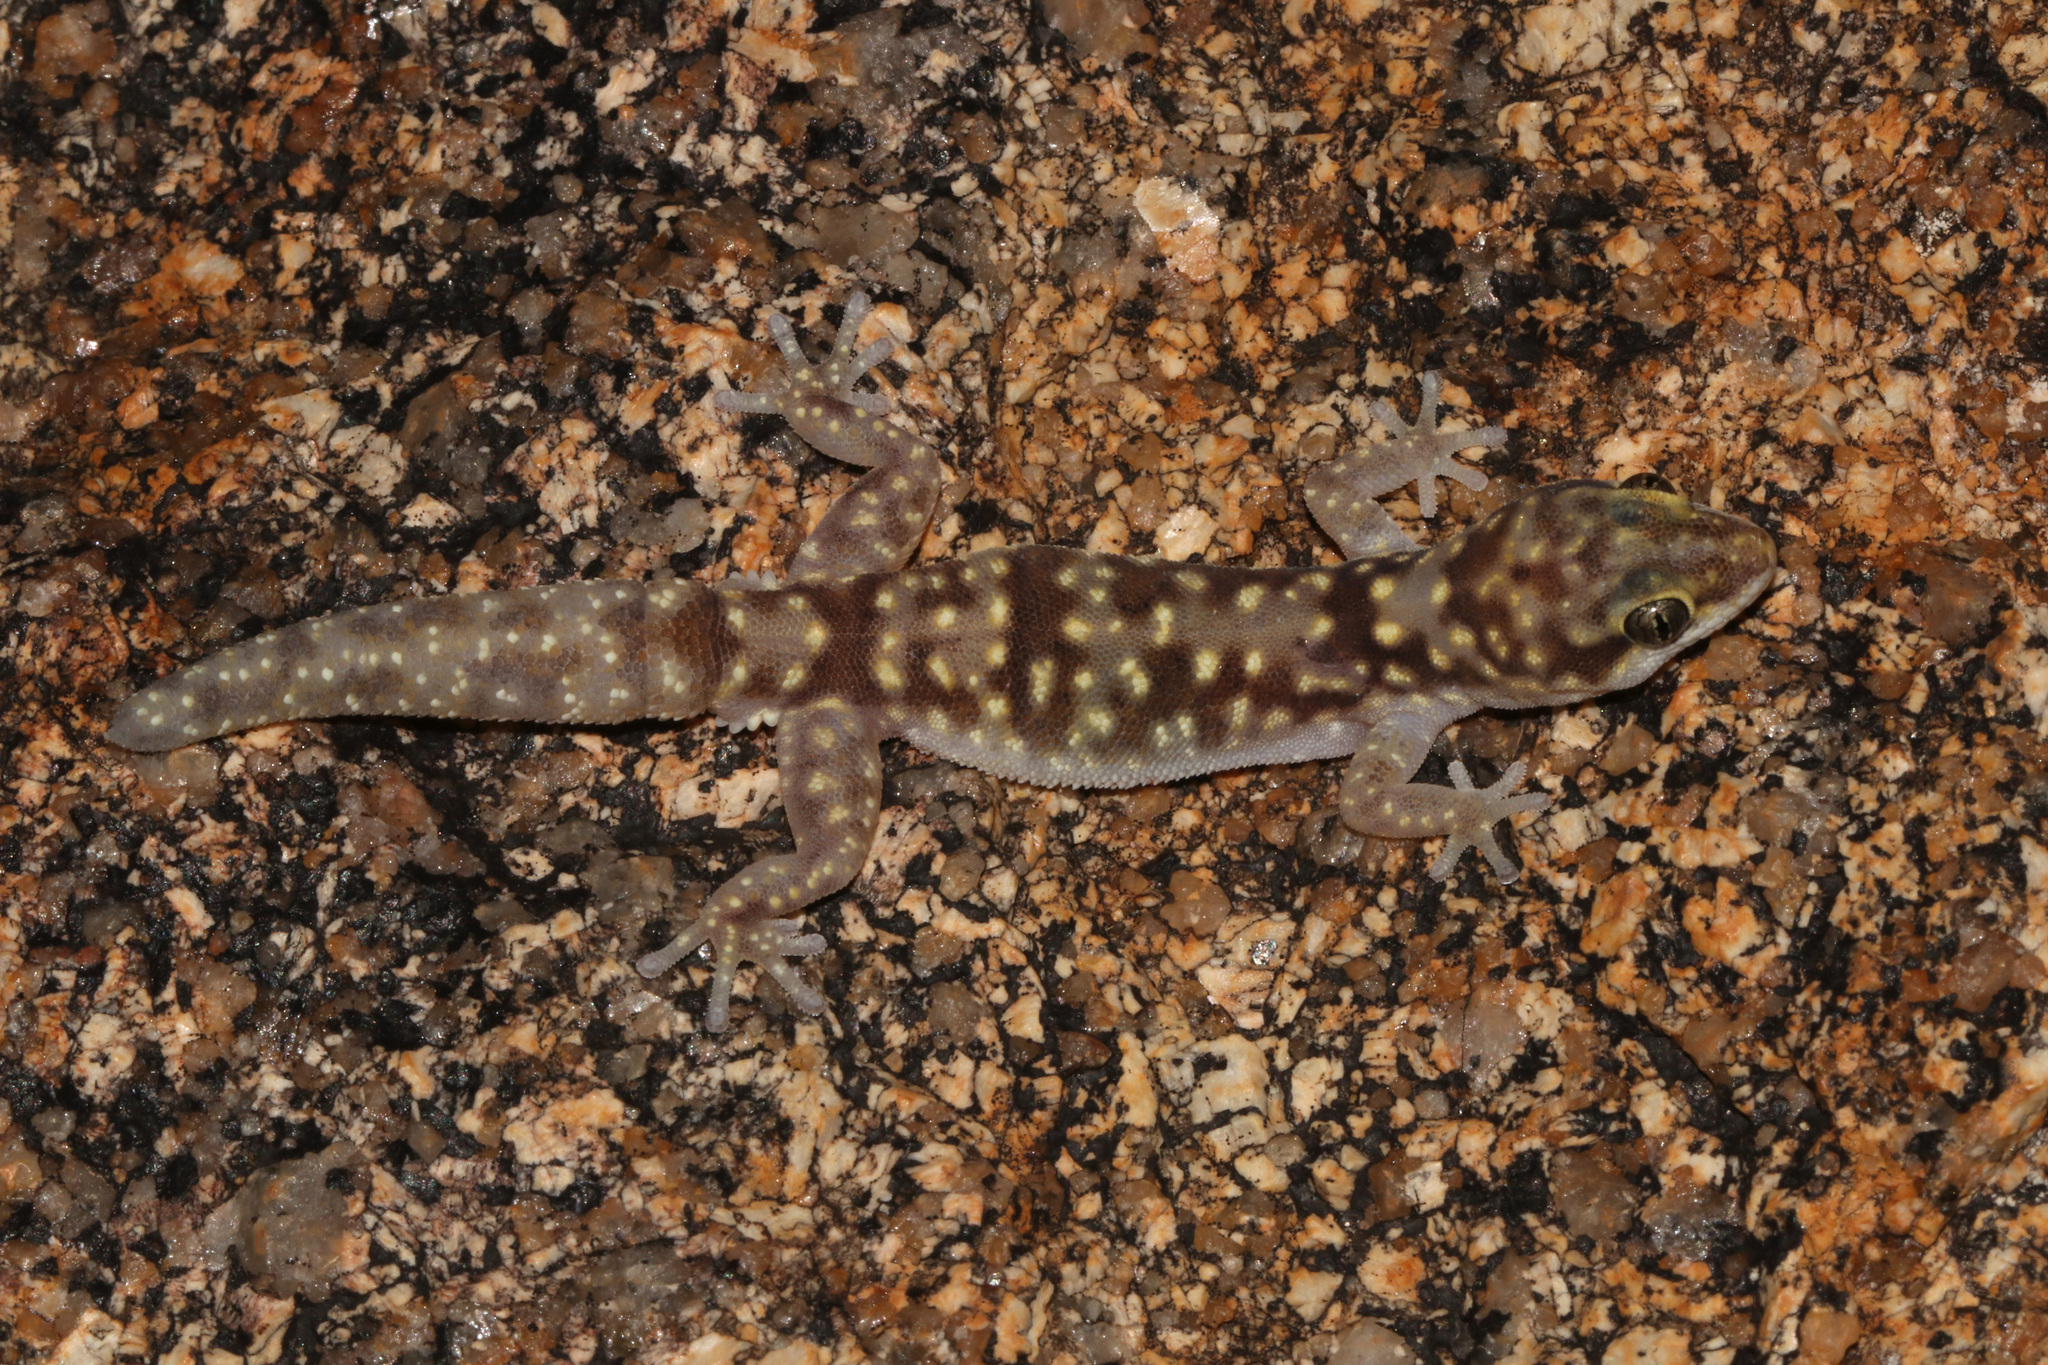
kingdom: Animalia
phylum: Chordata
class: Squamata
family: Gekkonidae
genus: Pachydactylus
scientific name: Pachydactylus bicolor
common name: Two-colored thick-toed gecko
